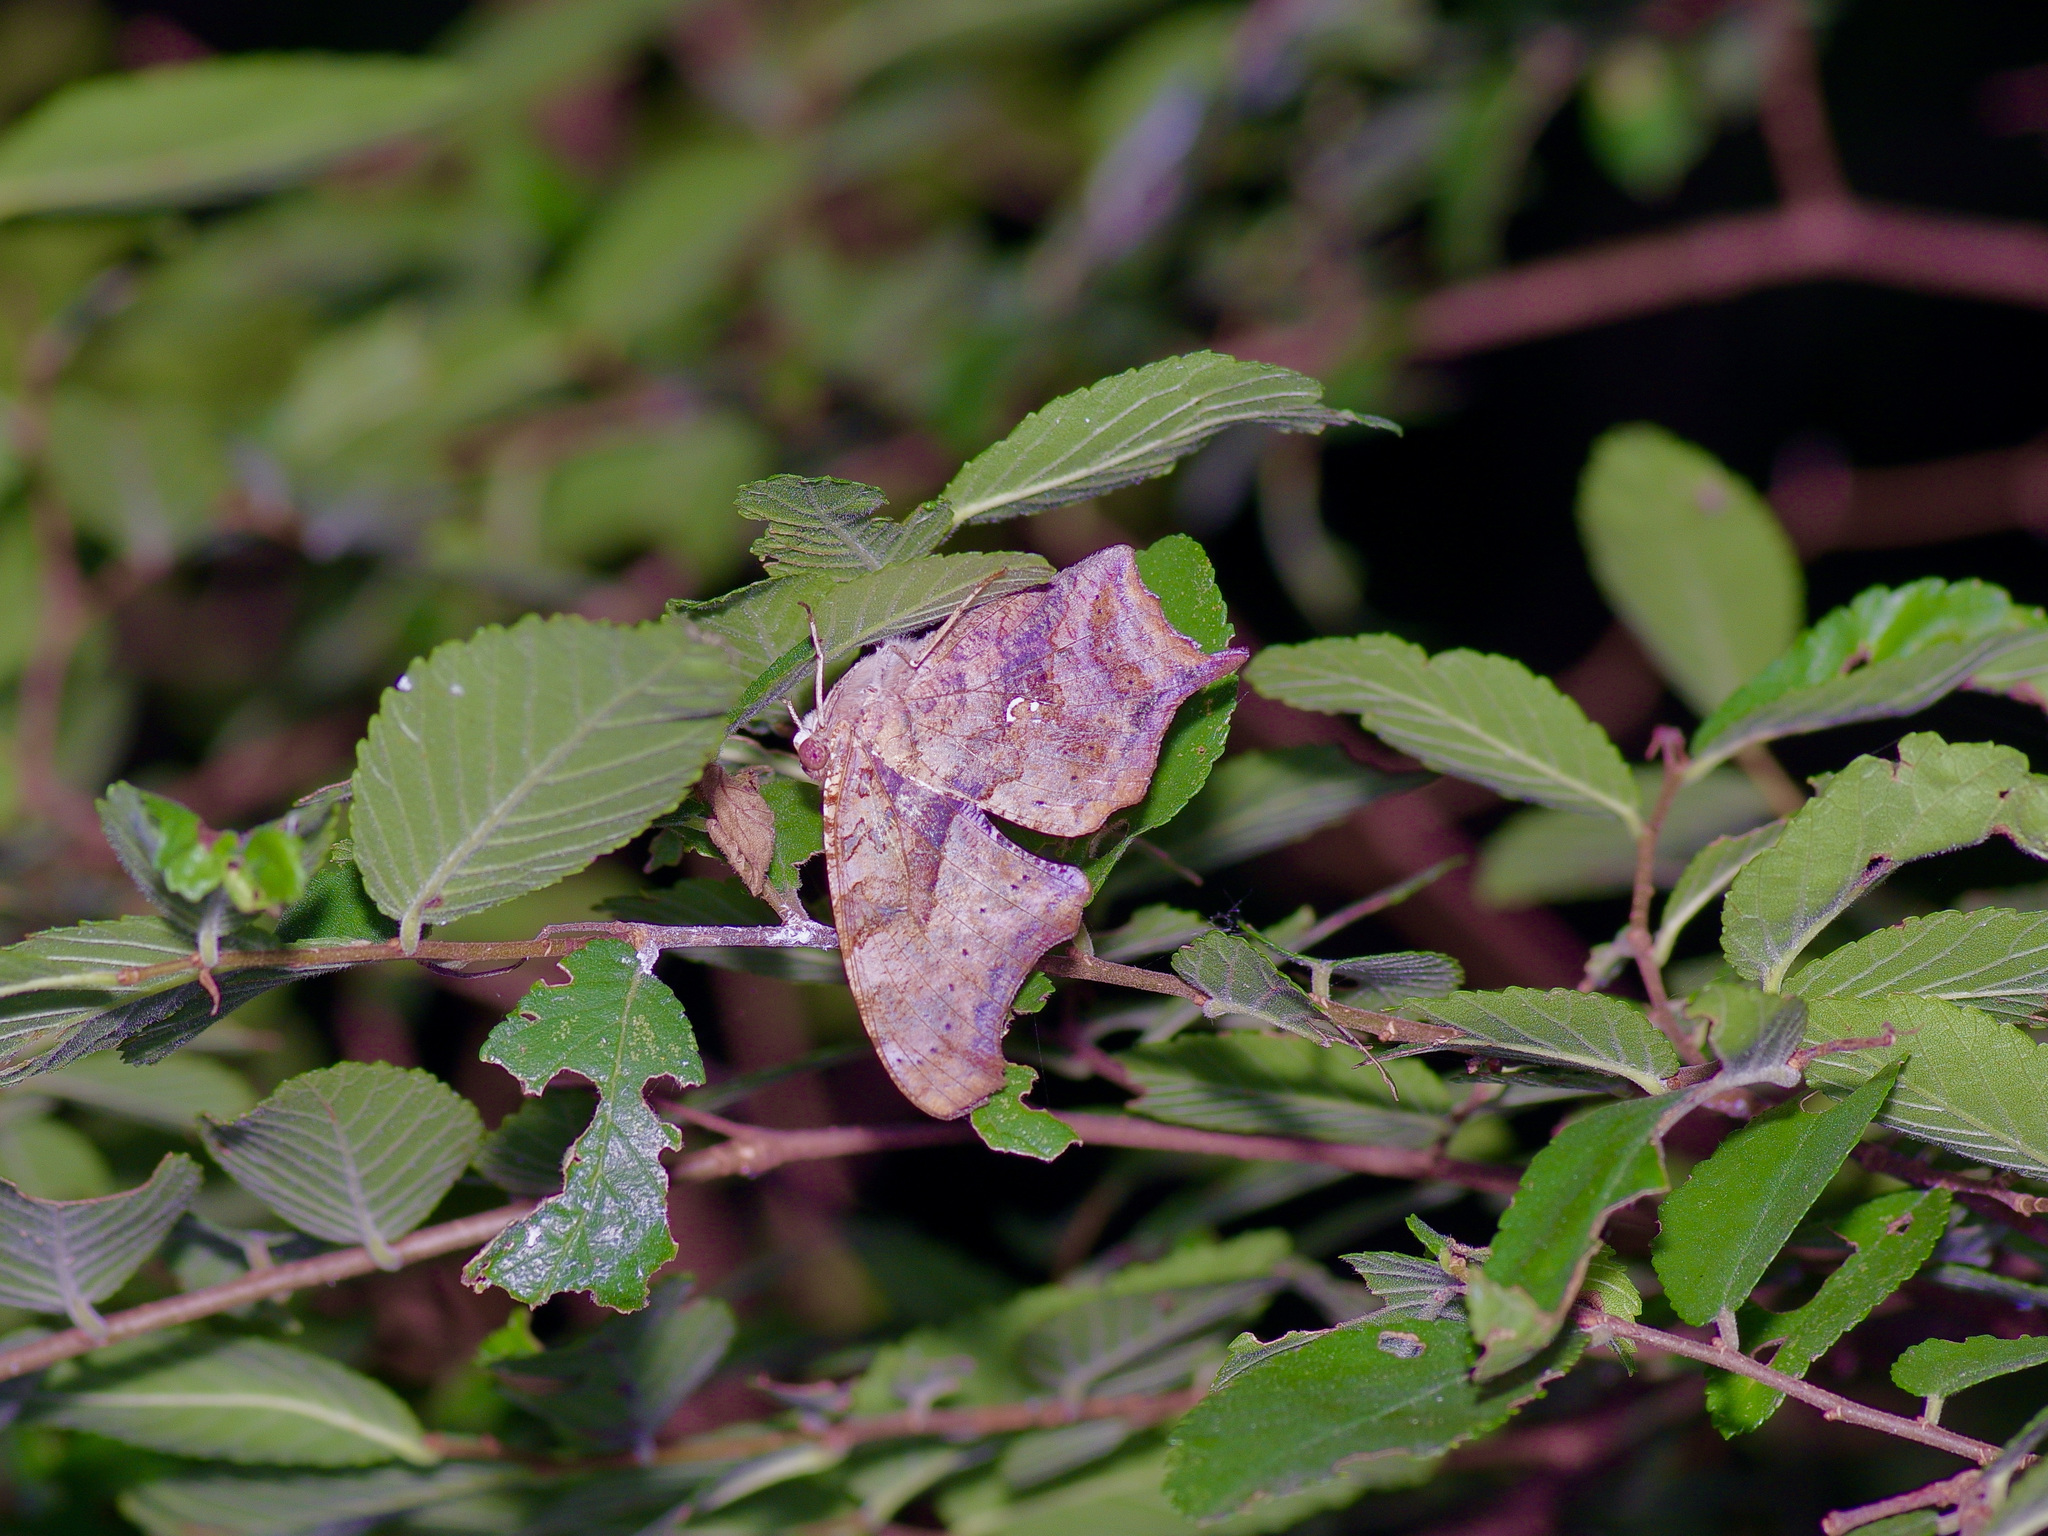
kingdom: Animalia
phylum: Arthropoda
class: Insecta
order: Lepidoptera
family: Nymphalidae
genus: Polygonia
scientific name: Polygonia interrogationis
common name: Question mark
